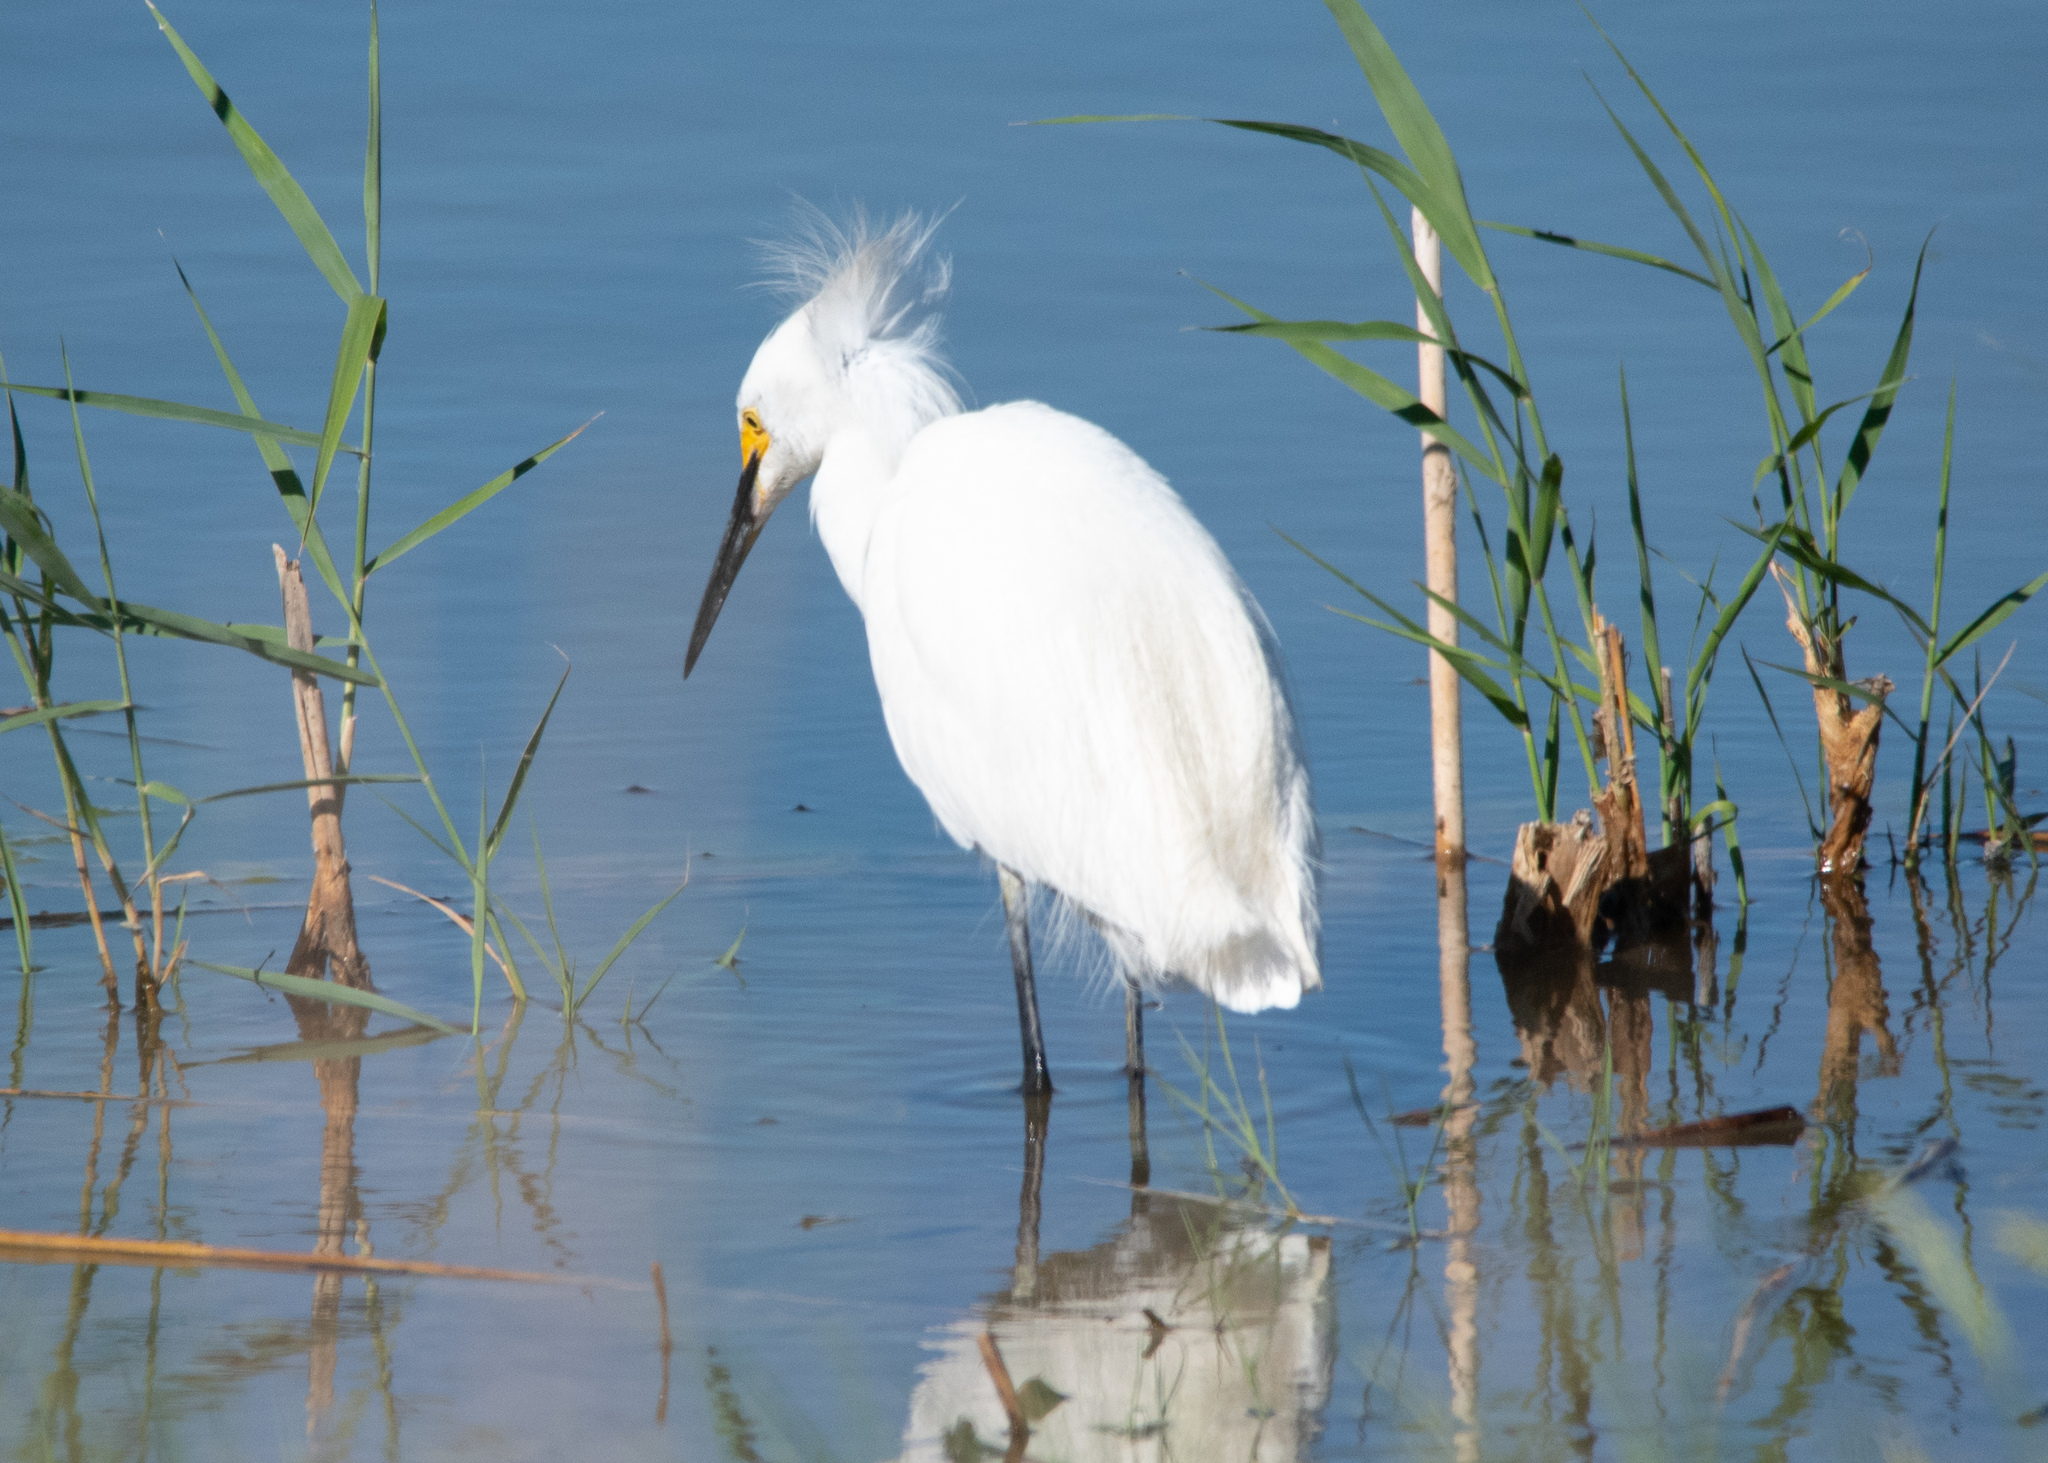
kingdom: Animalia
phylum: Chordata
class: Aves
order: Pelecaniformes
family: Ardeidae
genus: Egretta
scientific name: Egretta thula
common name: Snowy egret
